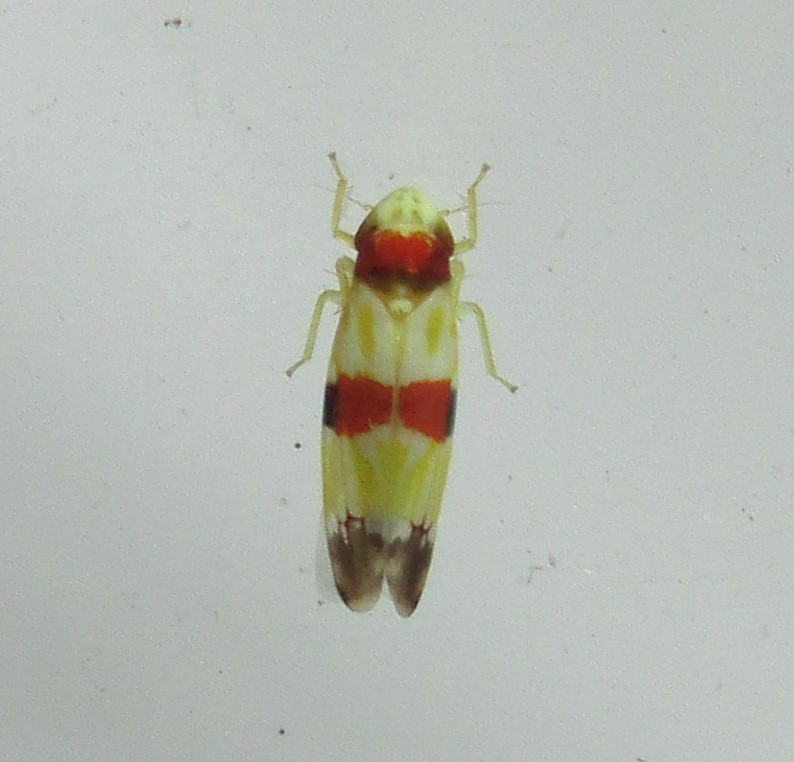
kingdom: Animalia
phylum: Arthropoda
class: Insecta
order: Hemiptera
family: Cicadellidae
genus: Erythroneura
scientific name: Erythroneura diva
